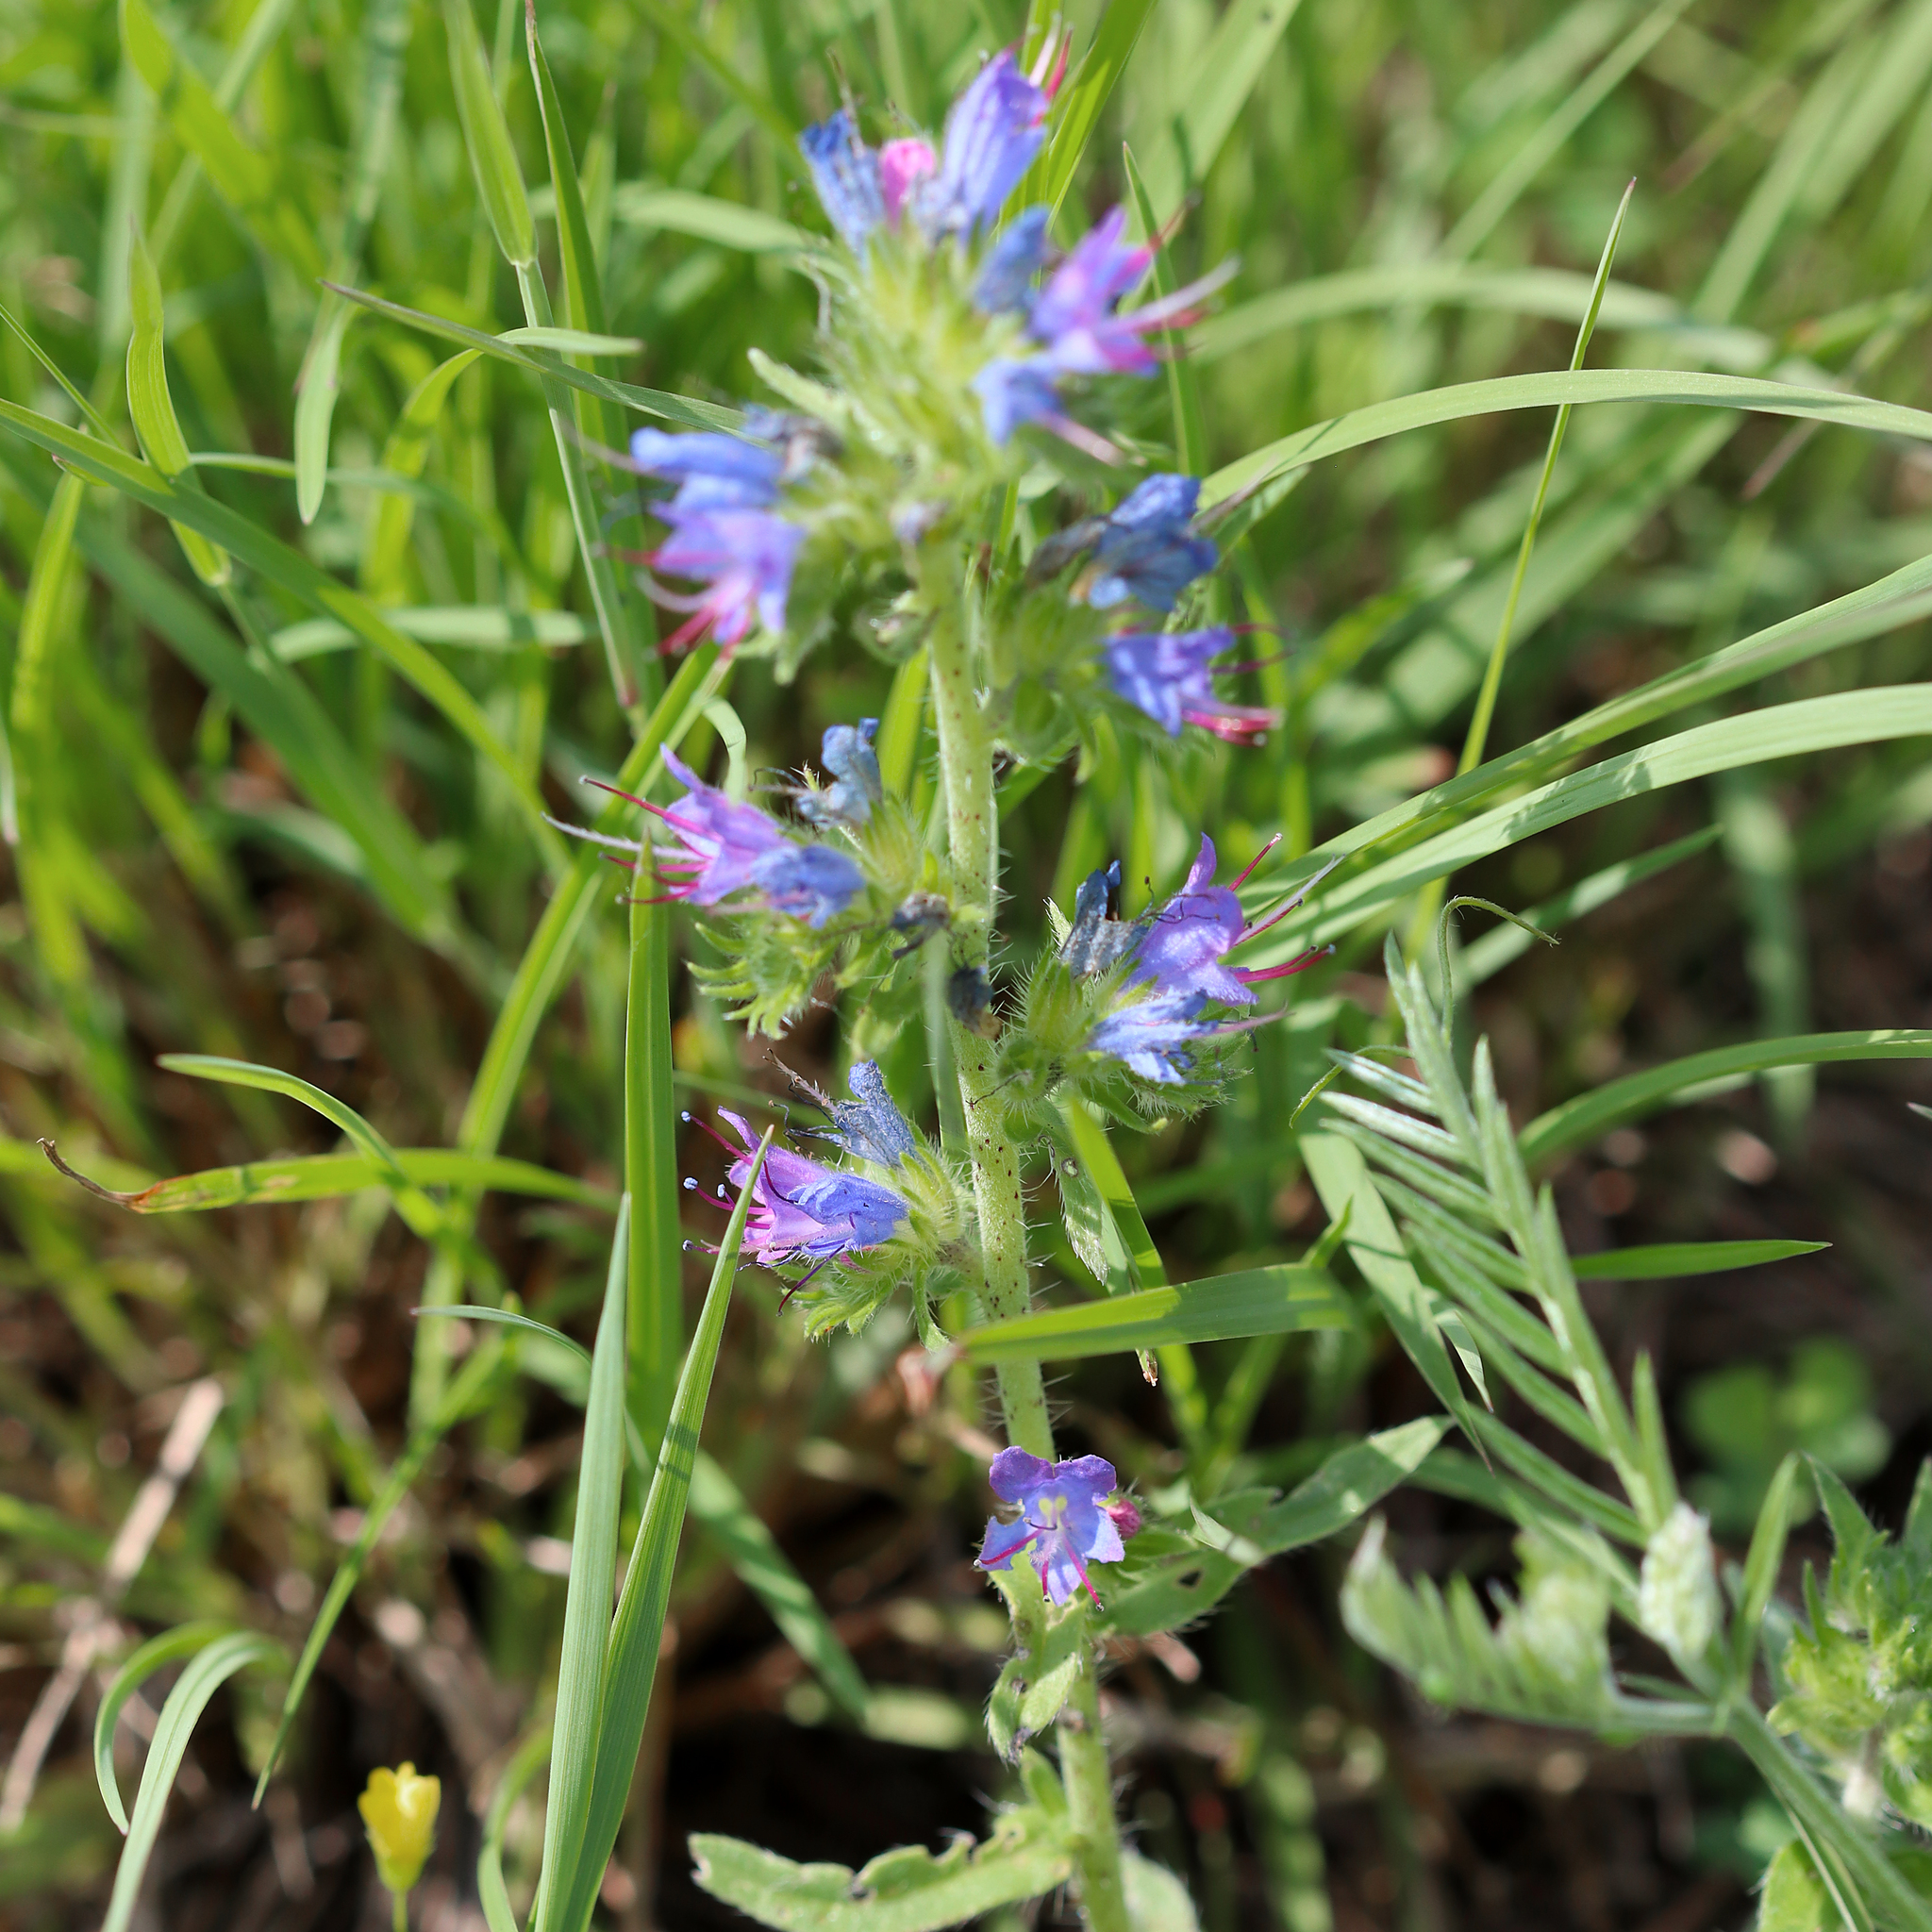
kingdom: Plantae
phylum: Tracheophyta
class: Magnoliopsida
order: Boraginales
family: Boraginaceae
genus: Echium
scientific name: Echium vulgare
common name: Common viper's bugloss
